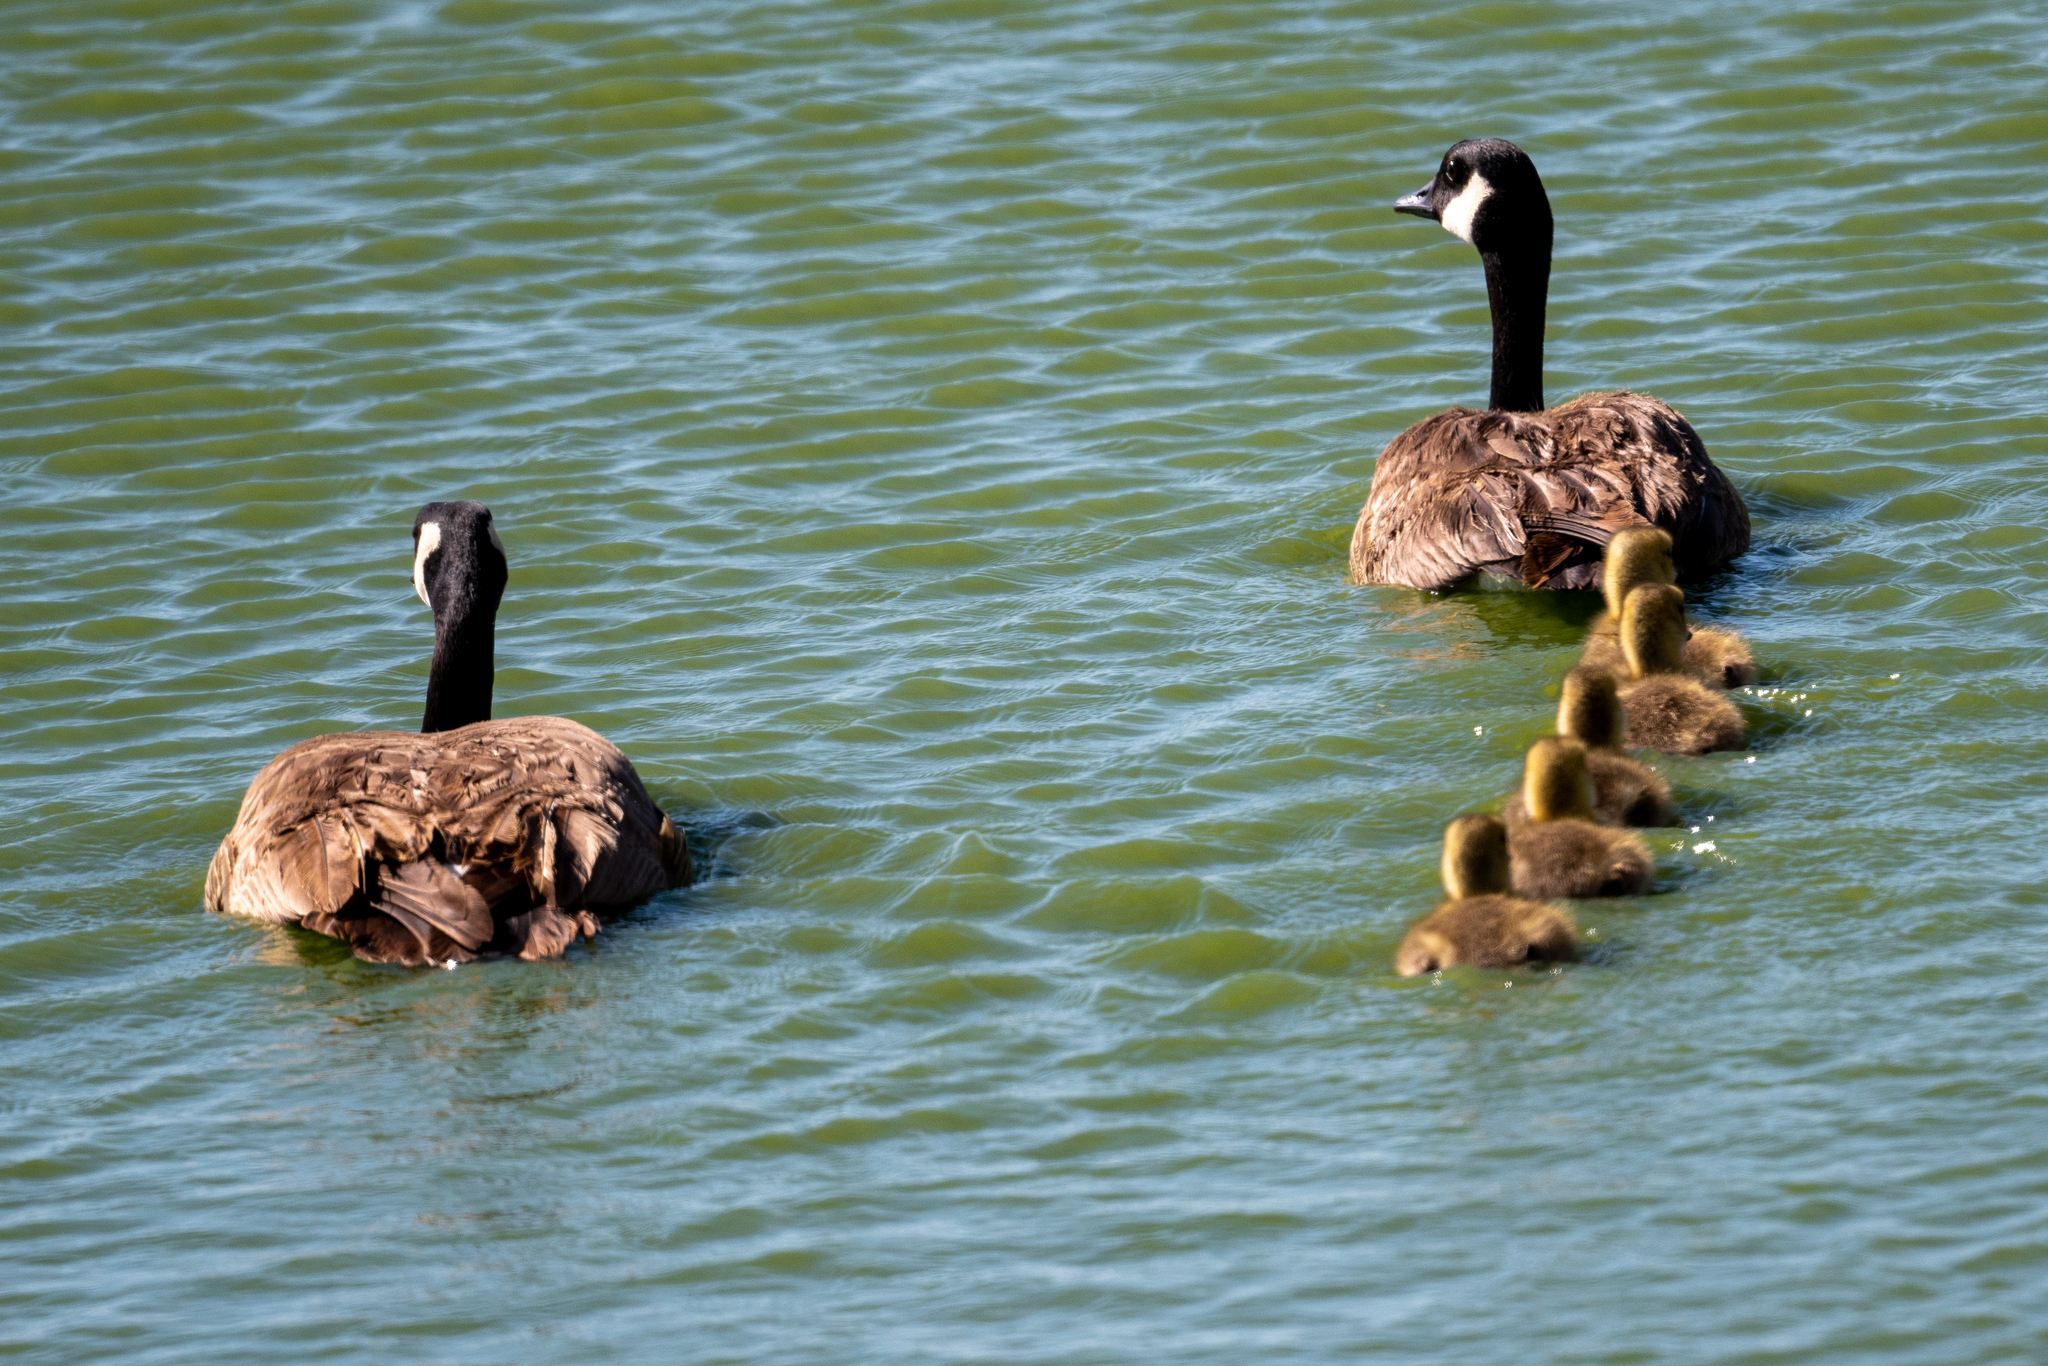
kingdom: Animalia
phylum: Chordata
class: Aves
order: Anseriformes
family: Anatidae
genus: Branta
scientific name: Branta canadensis
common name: Canada goose
